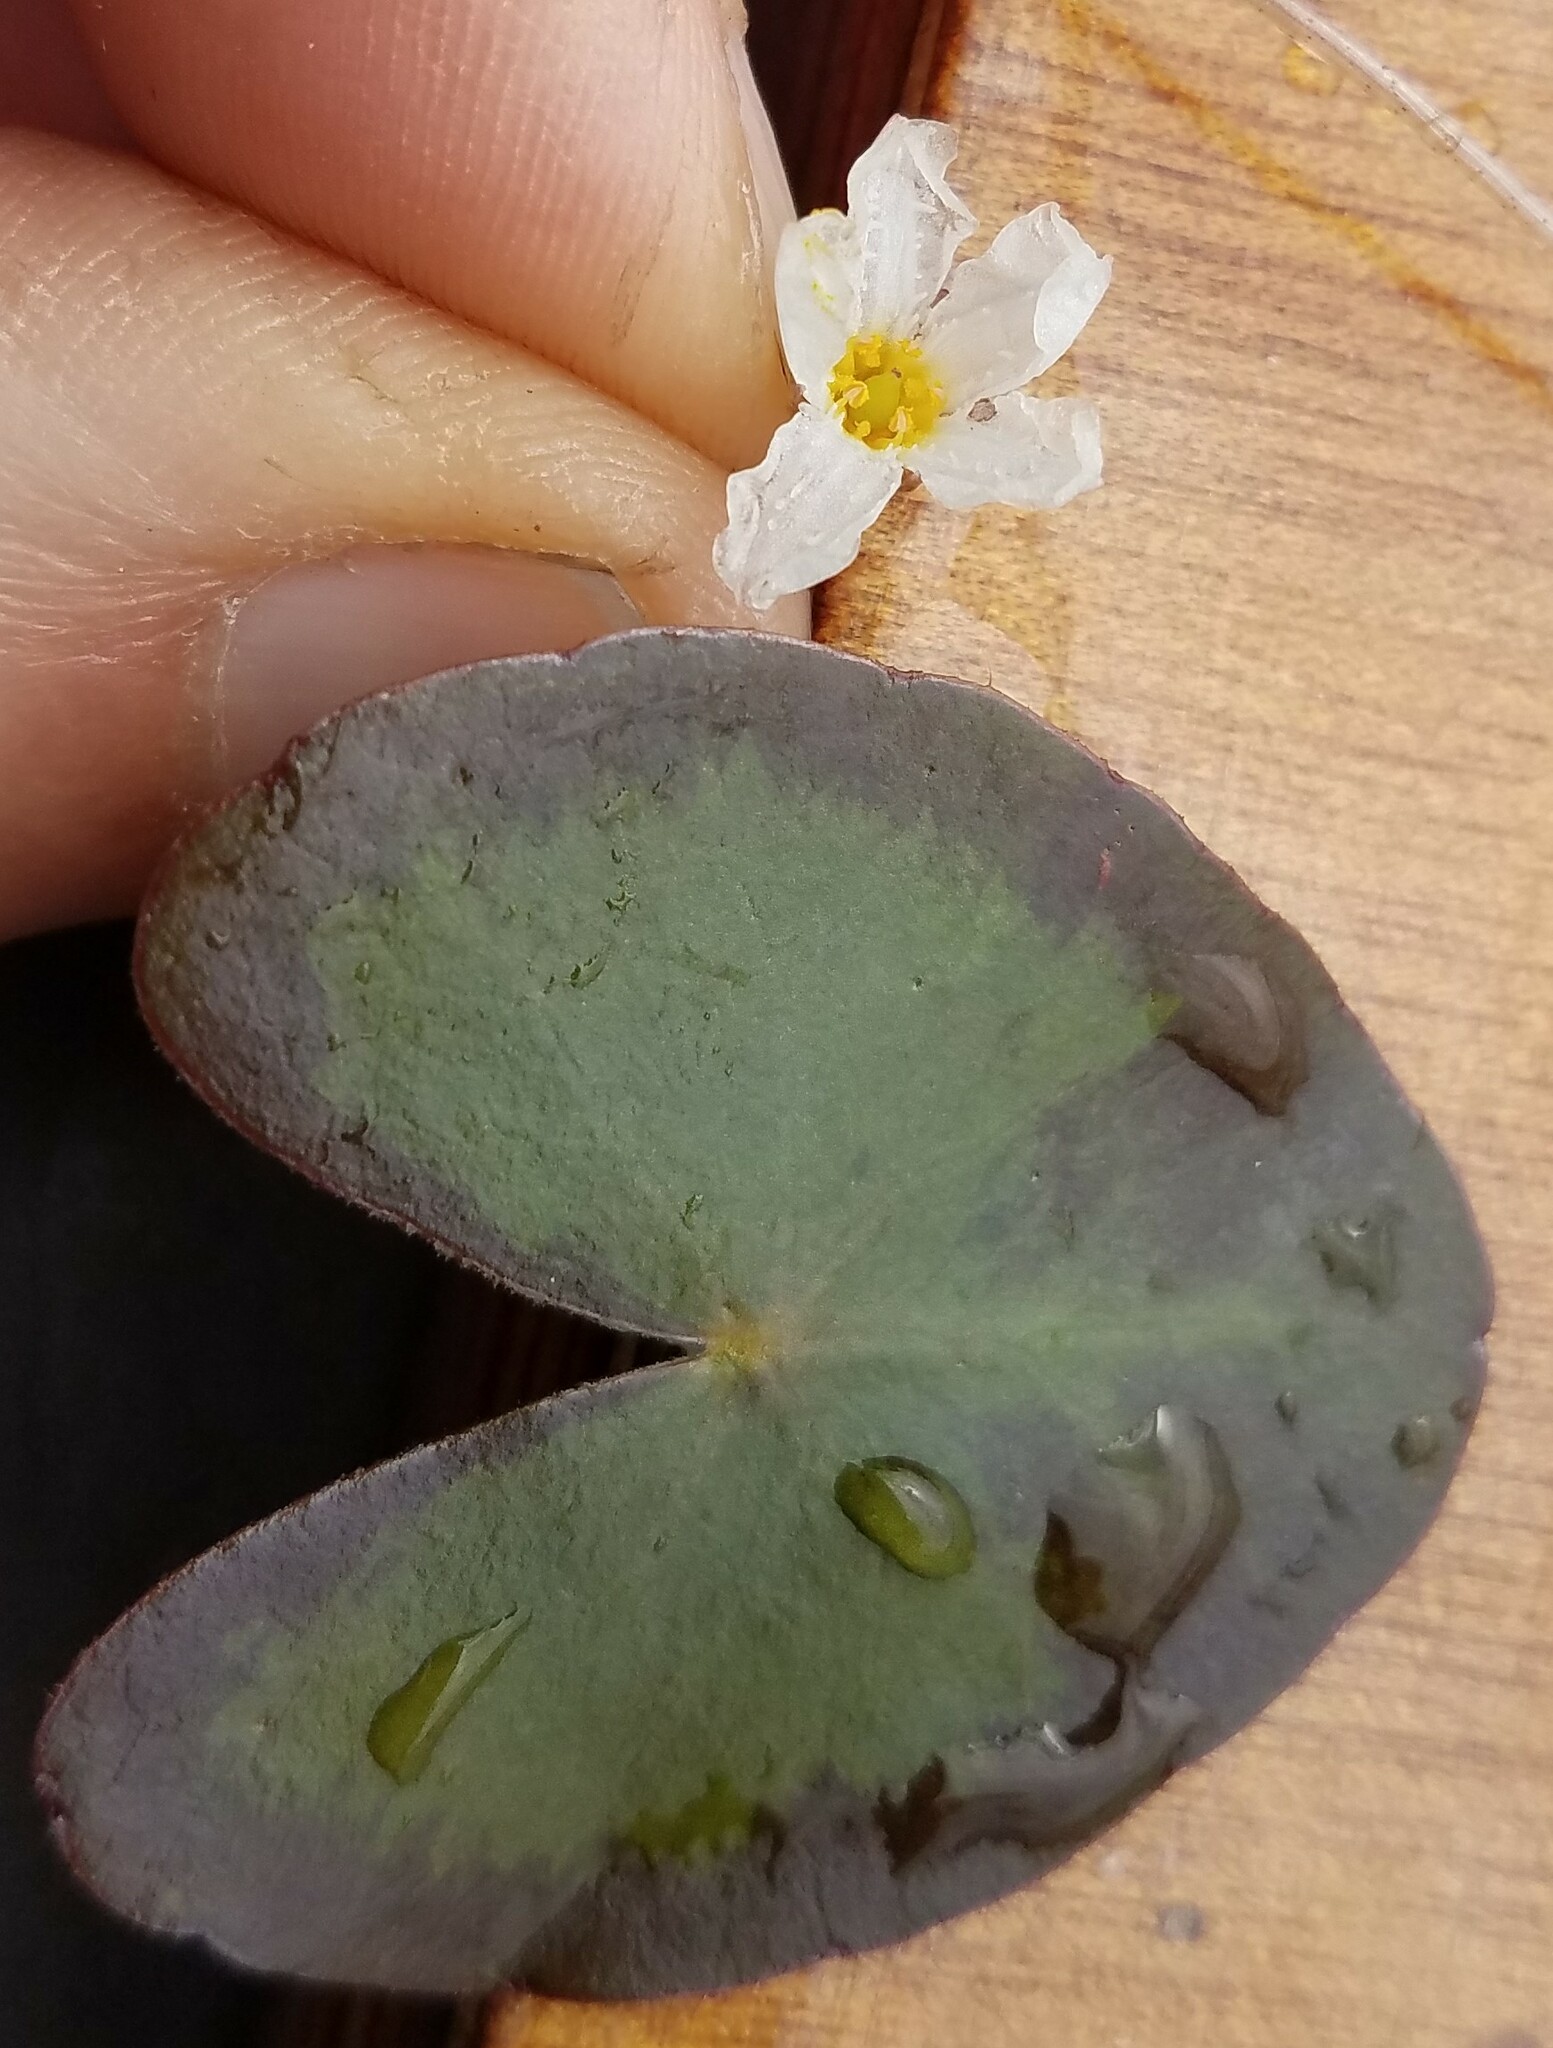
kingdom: Plantae
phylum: Tracheophyta
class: Magnoliopsida
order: Asterales
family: Menyanthaceae
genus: Nymphoides
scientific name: Nymphoides cordata
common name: Eight-angled floatingheart
